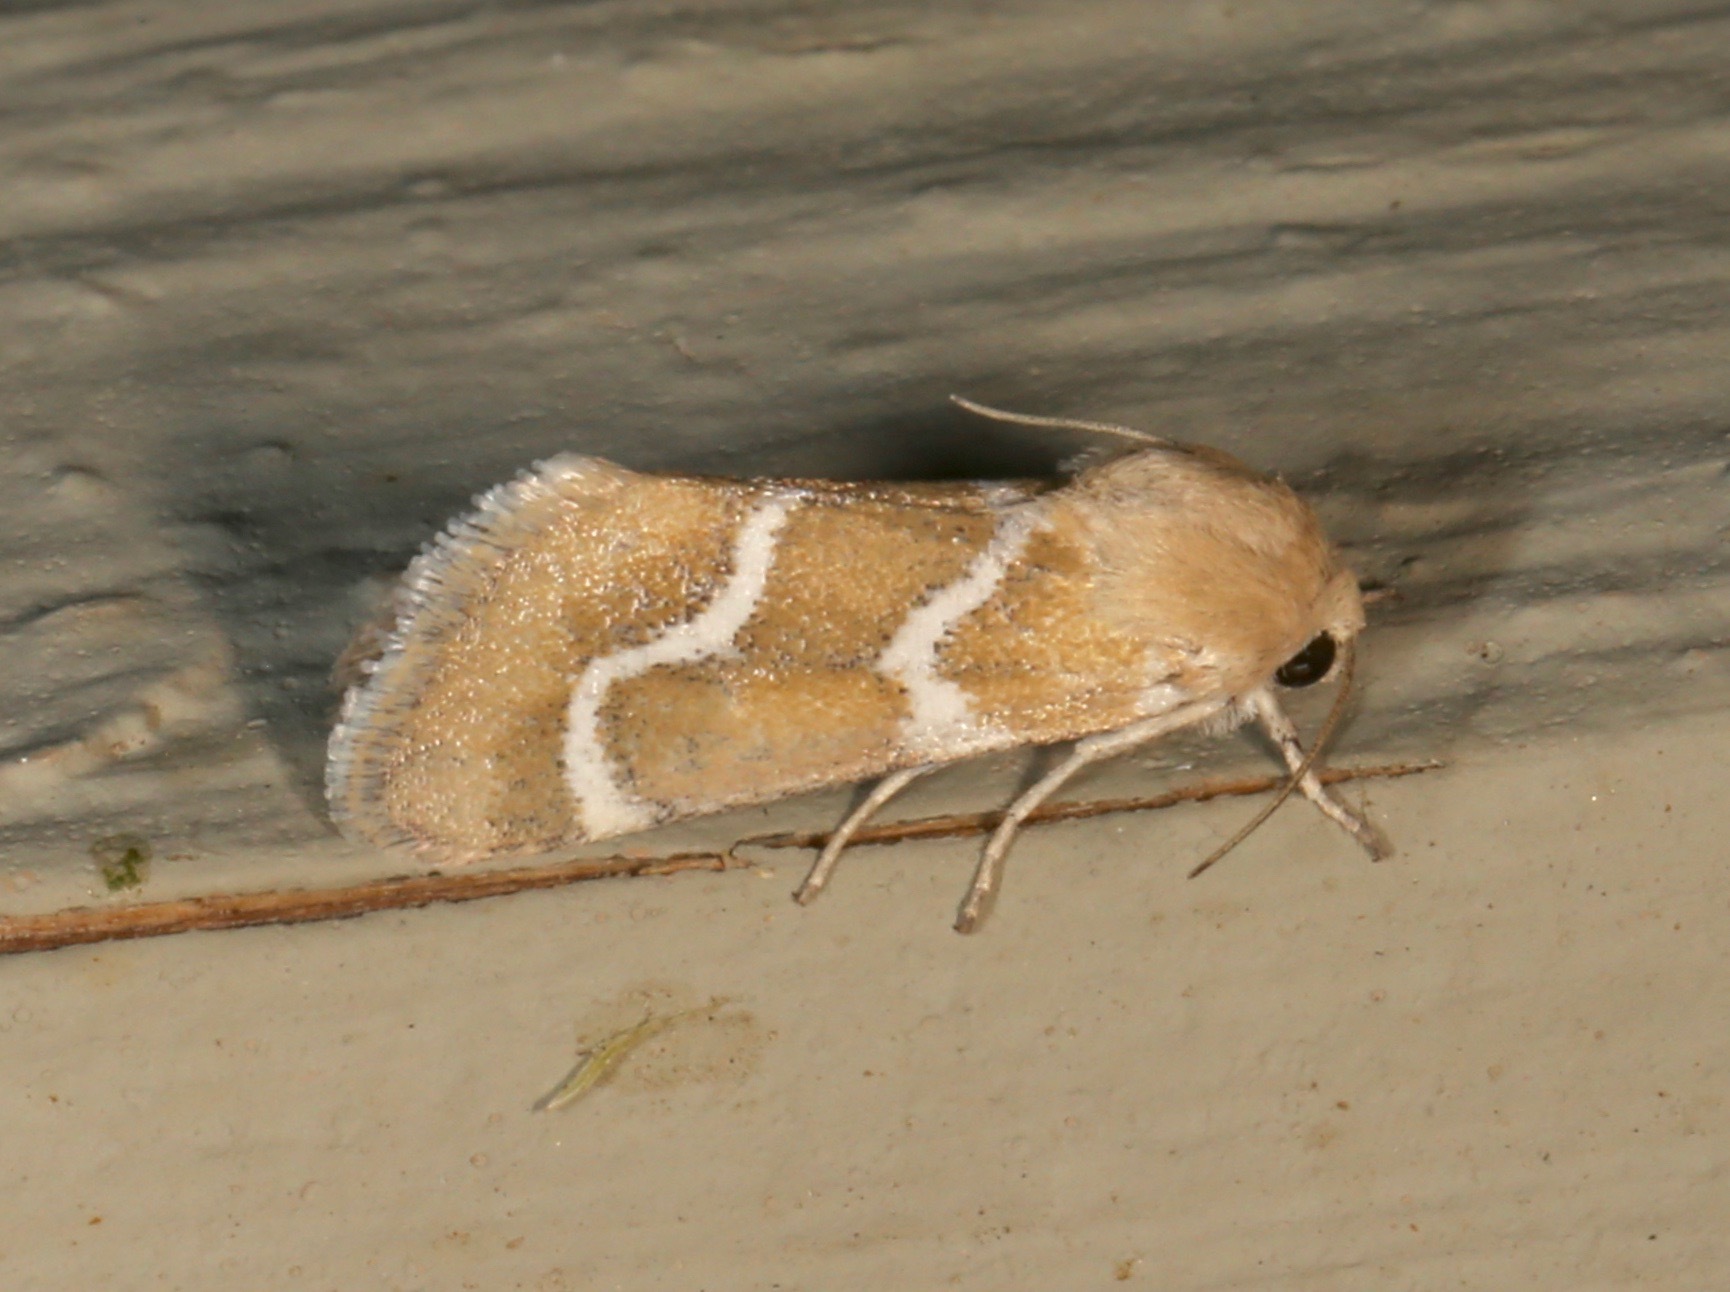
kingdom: Animalia
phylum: Arthropoda
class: Insecta
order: Lepidoptera
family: Noctuidae
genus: Schinia
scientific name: Schinia biundulata
